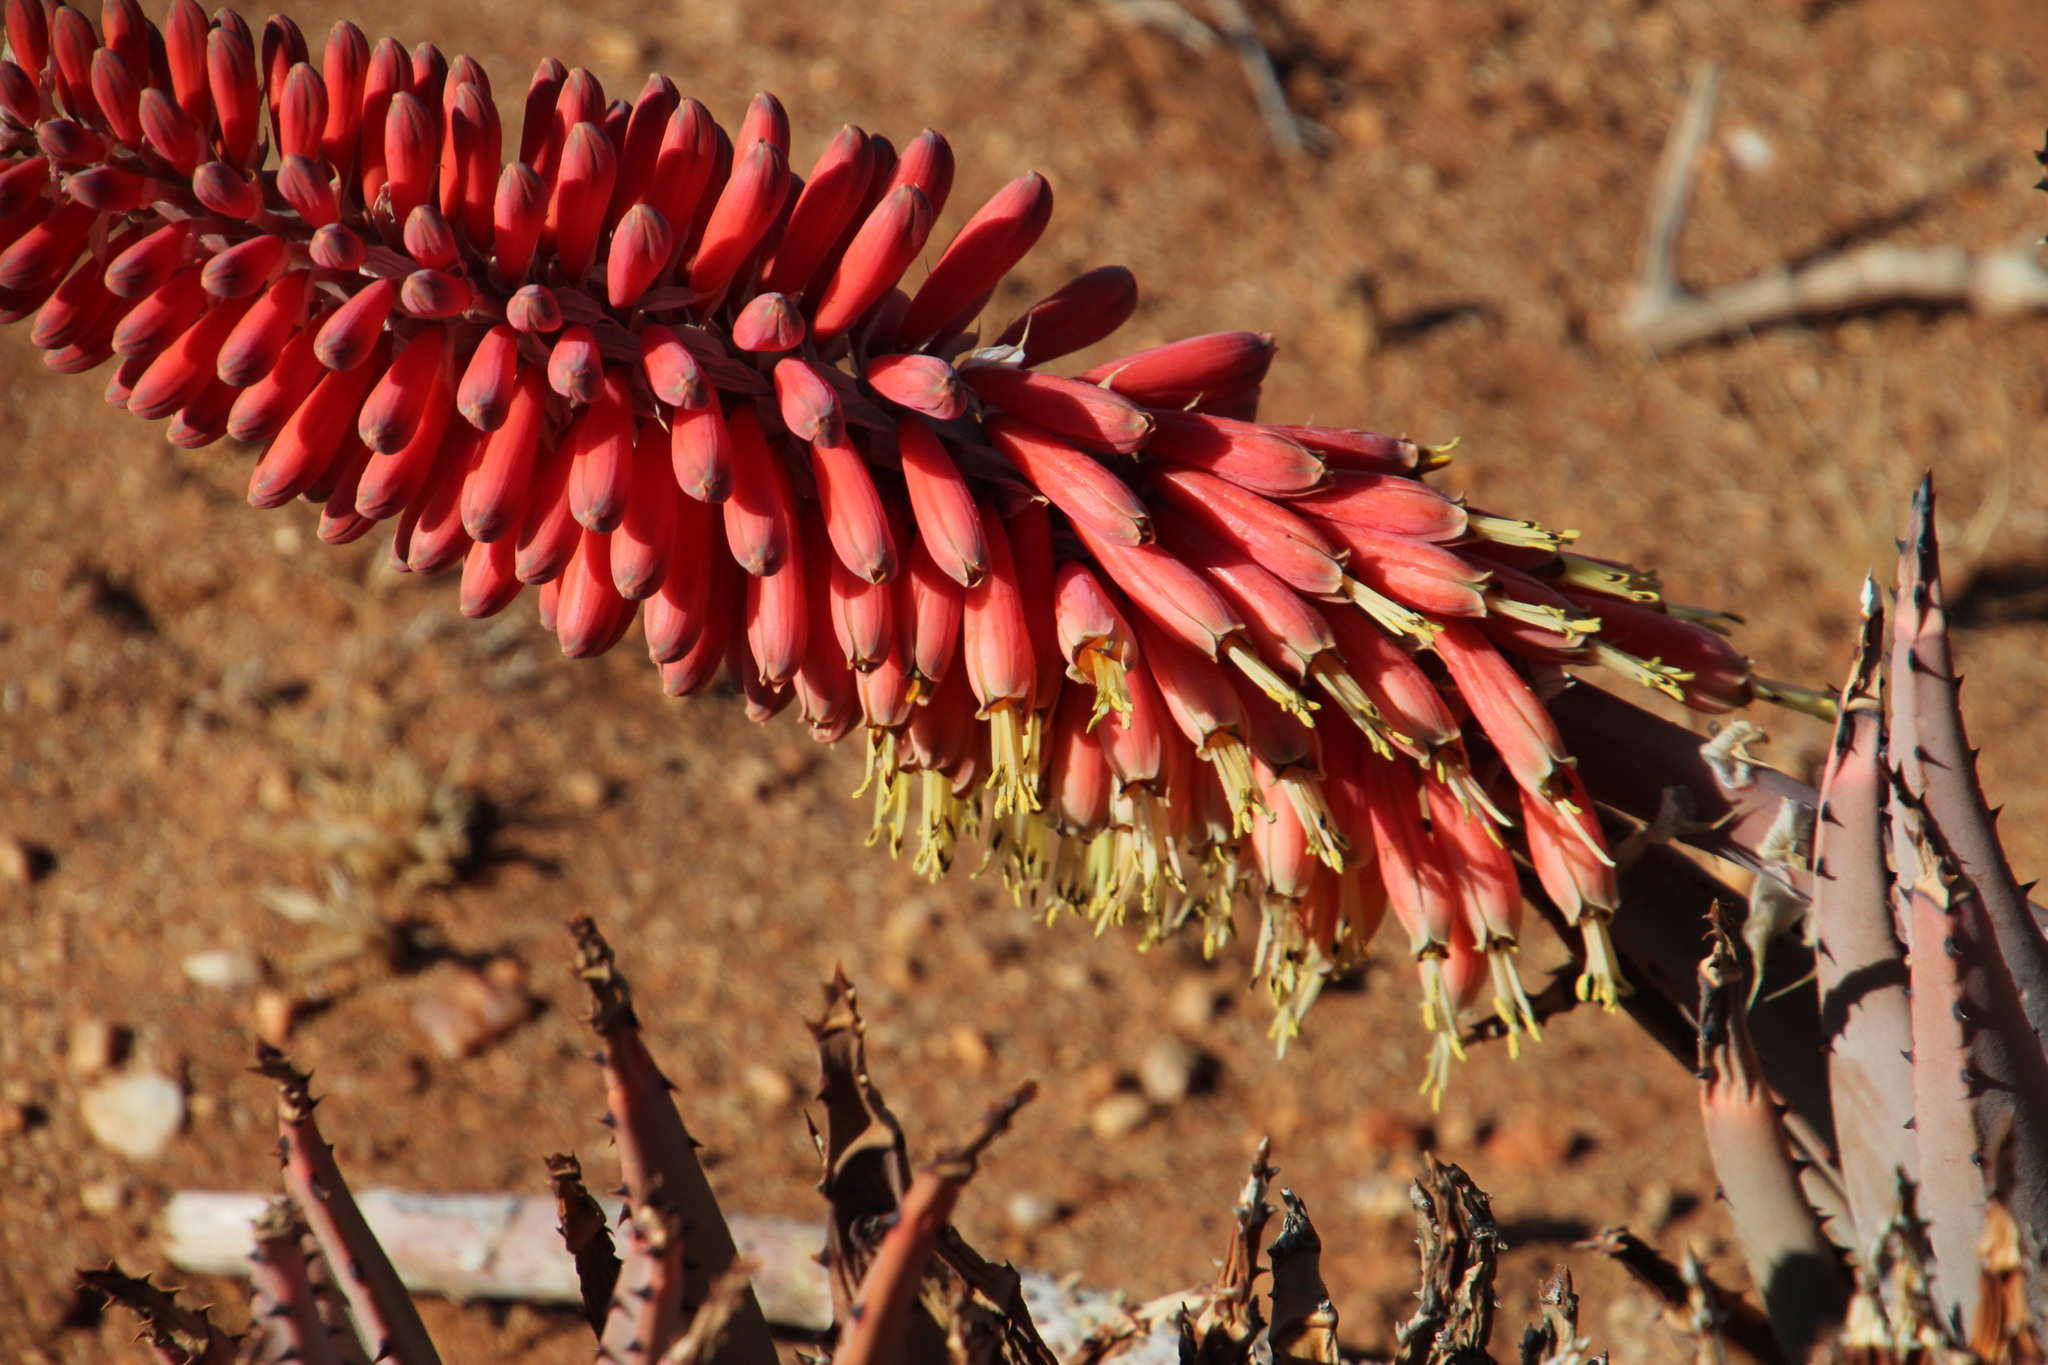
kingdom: Plantae
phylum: Tracheophyta
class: Liliopsida
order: Asparagales
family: Asphodelaceae
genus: Aloe
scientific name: Aloe claviflora
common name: Cannon aloe
